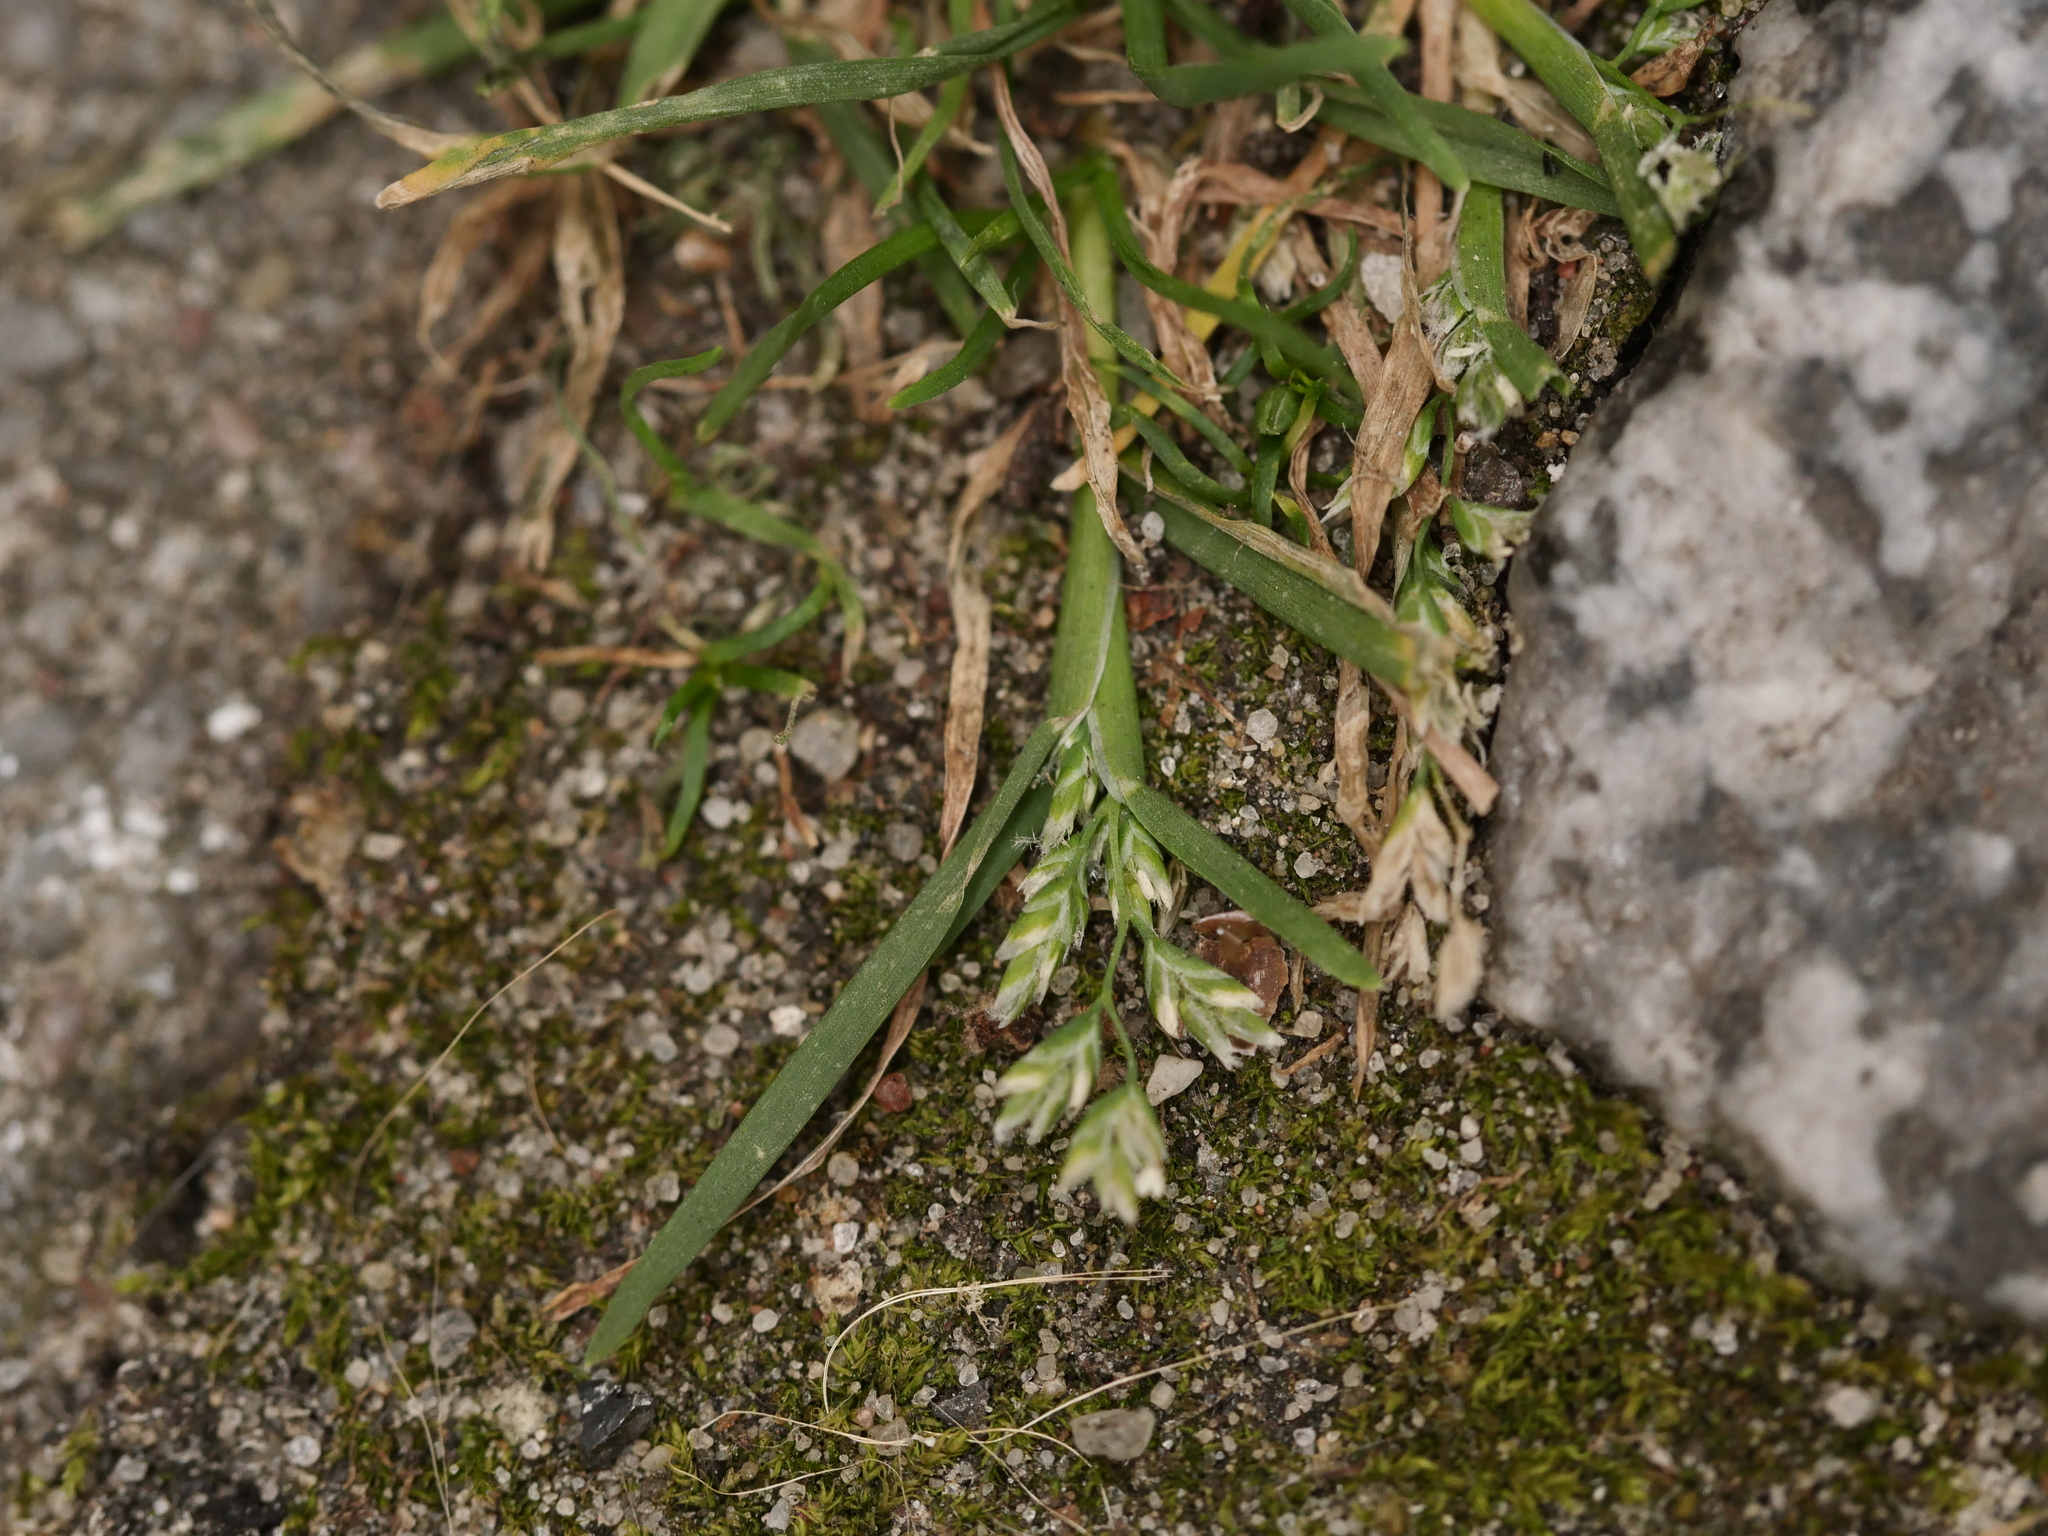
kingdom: Plantae
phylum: Tracheophyta
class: Liliopsida
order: Poales
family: Poaceae
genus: Poa
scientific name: Poa annua
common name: Annual bluegrass
